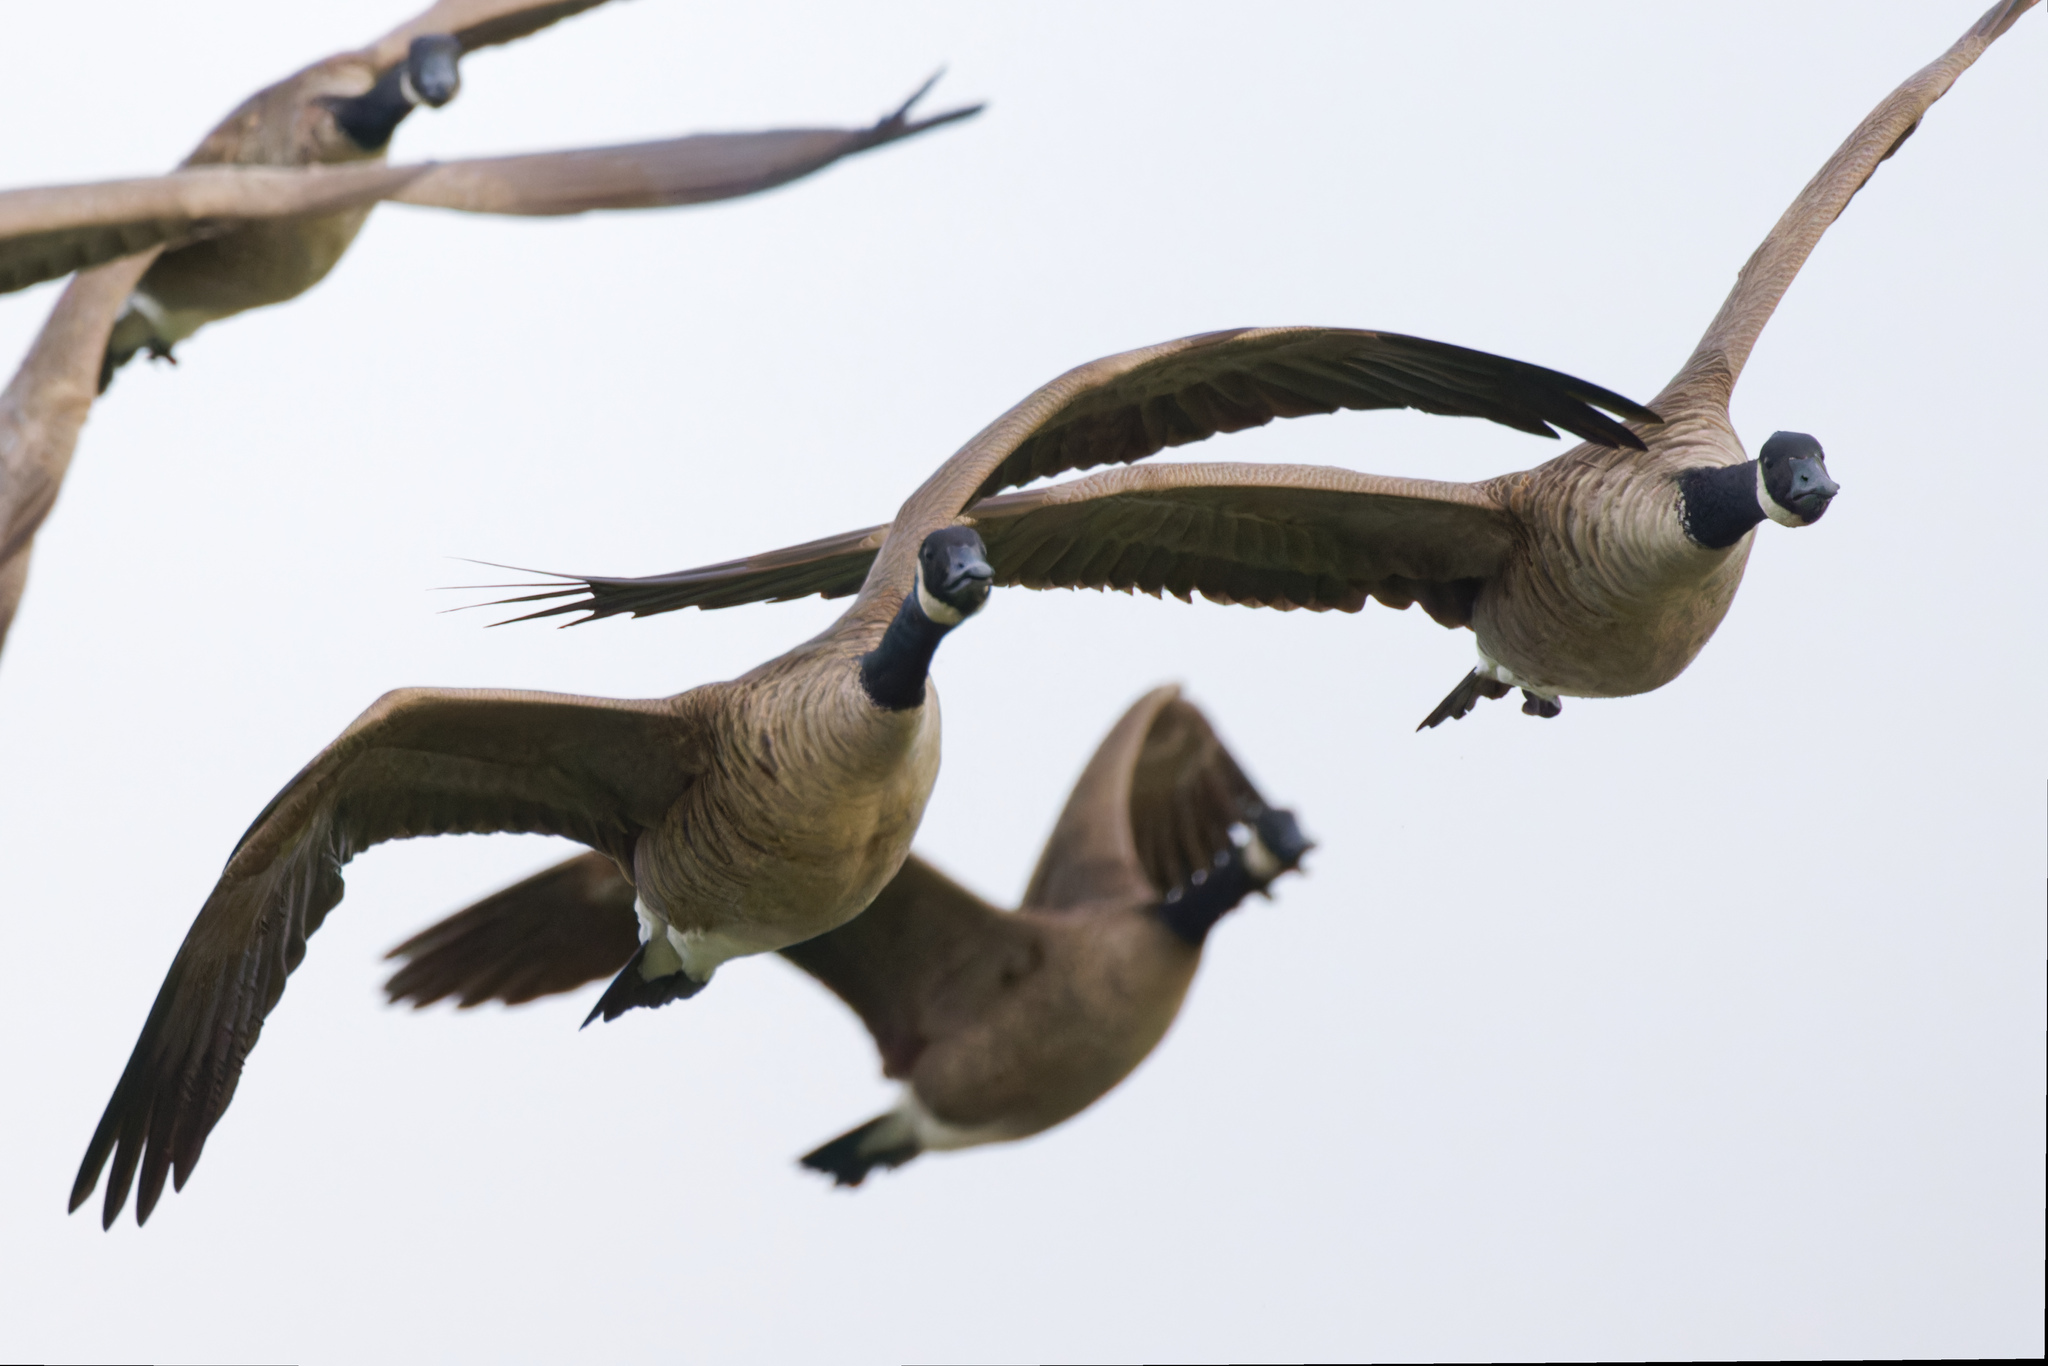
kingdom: Animalia
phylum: Chordata
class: Aves
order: Anseriformes
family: Anatidae
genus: Branta
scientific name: Branta canadensis
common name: Canada goose
